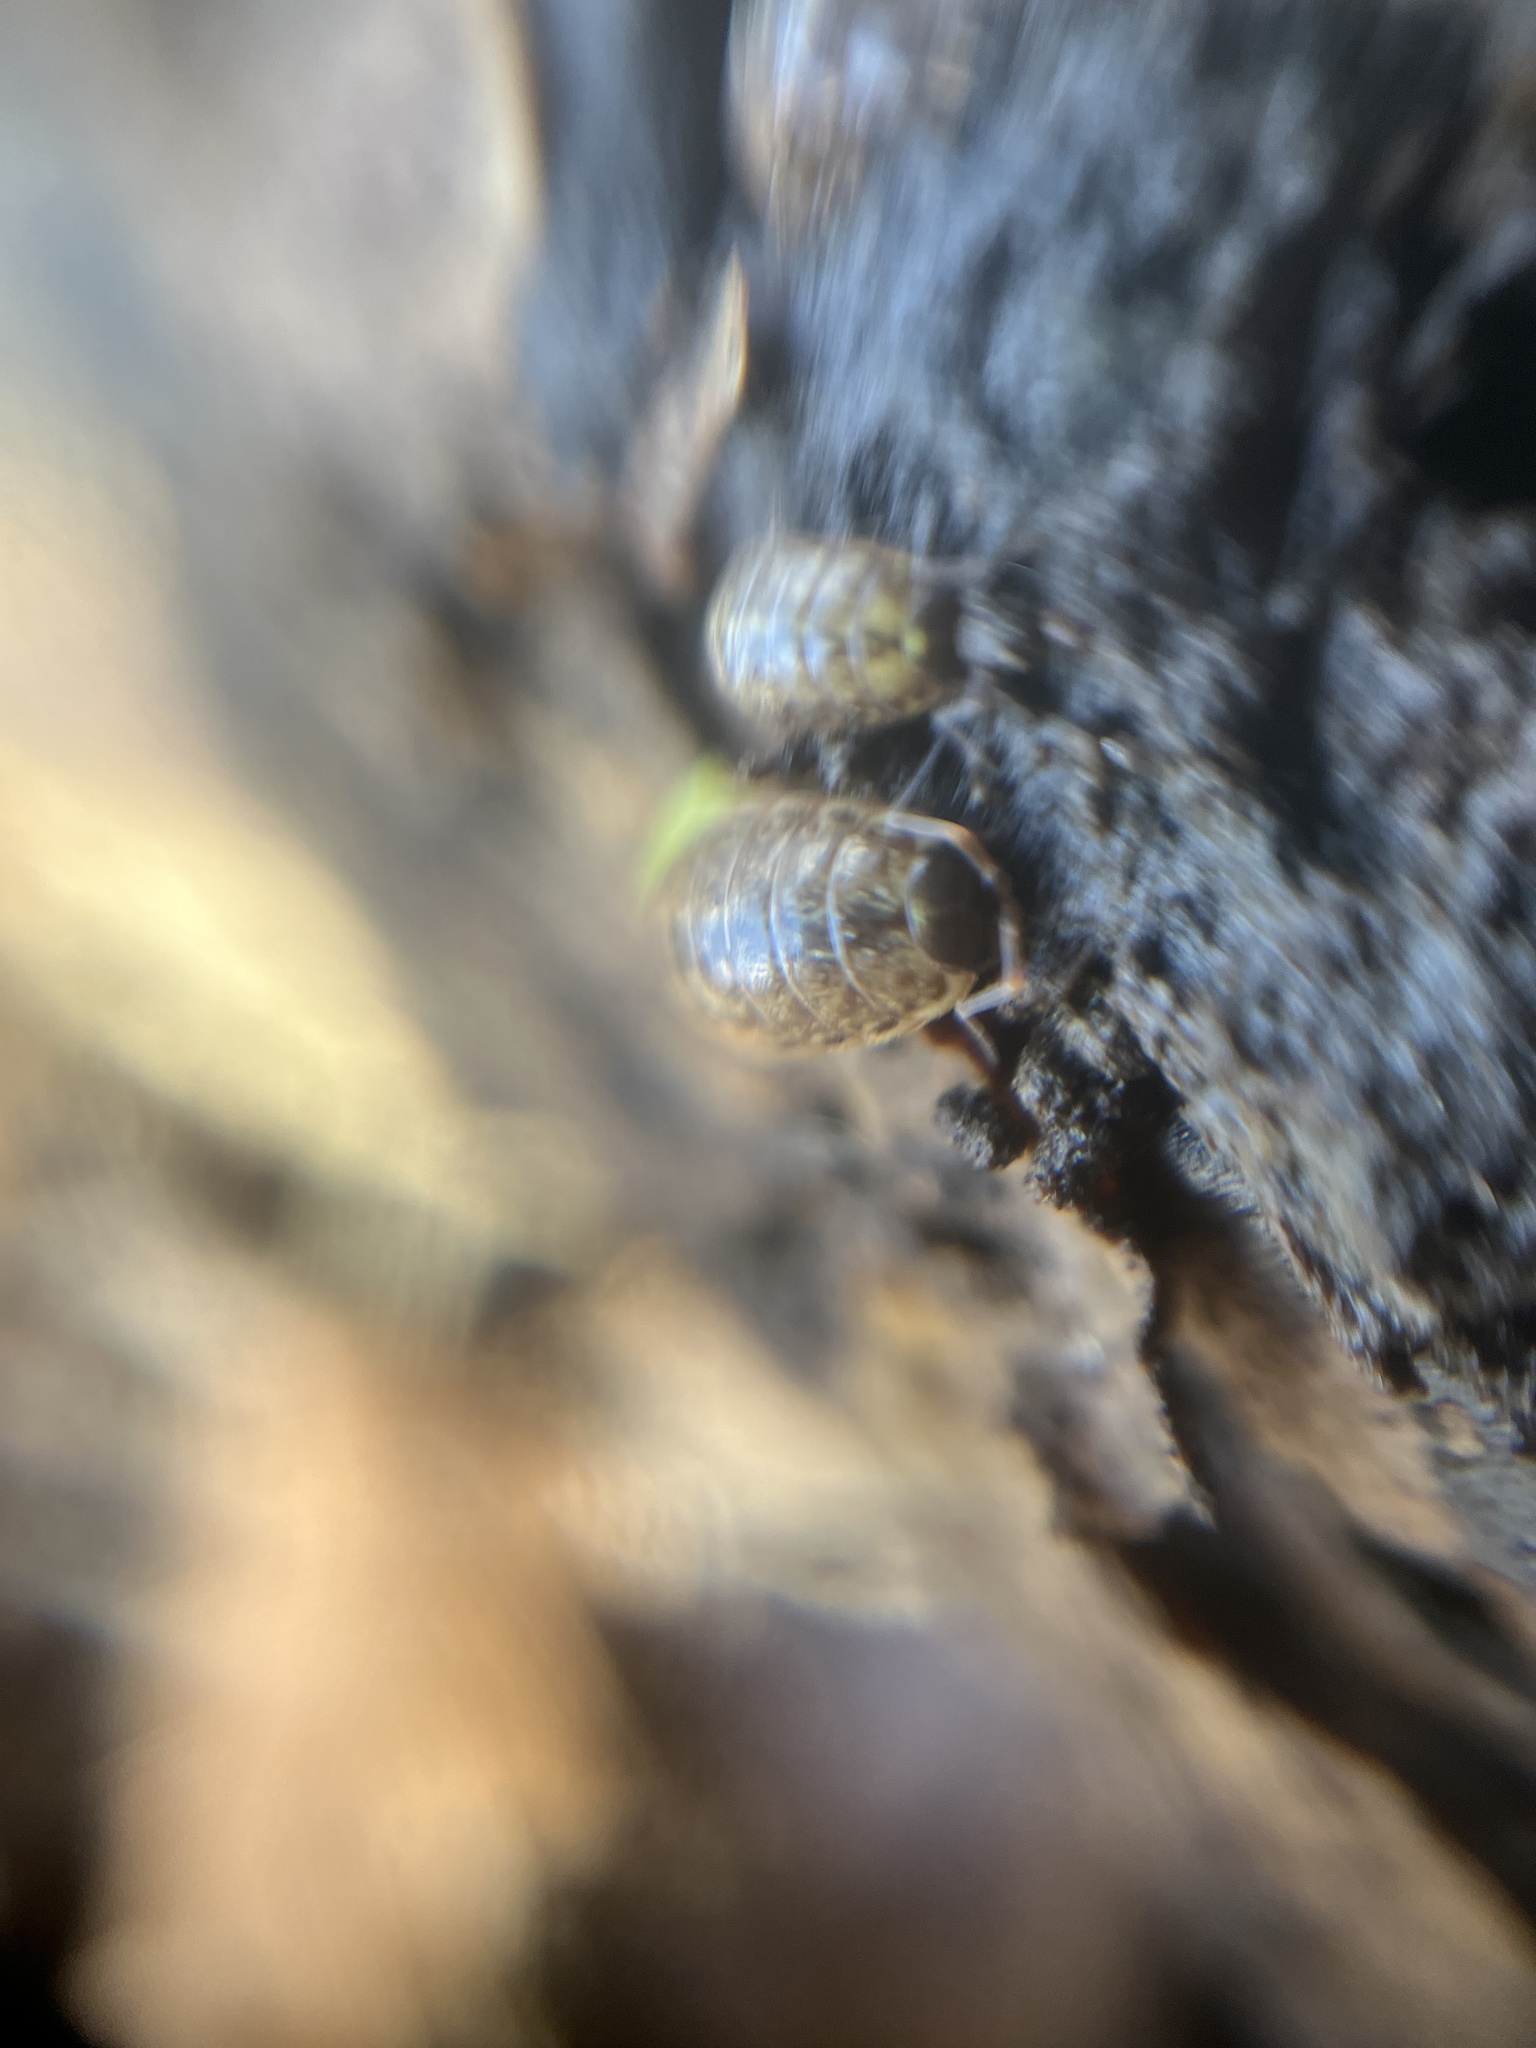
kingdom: Animalia
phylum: Arthropoda
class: Malacostraca
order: Isopoda
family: Philosciidae
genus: Philoscia
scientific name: Philoscia muscorum
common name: Common striped woodlouse
